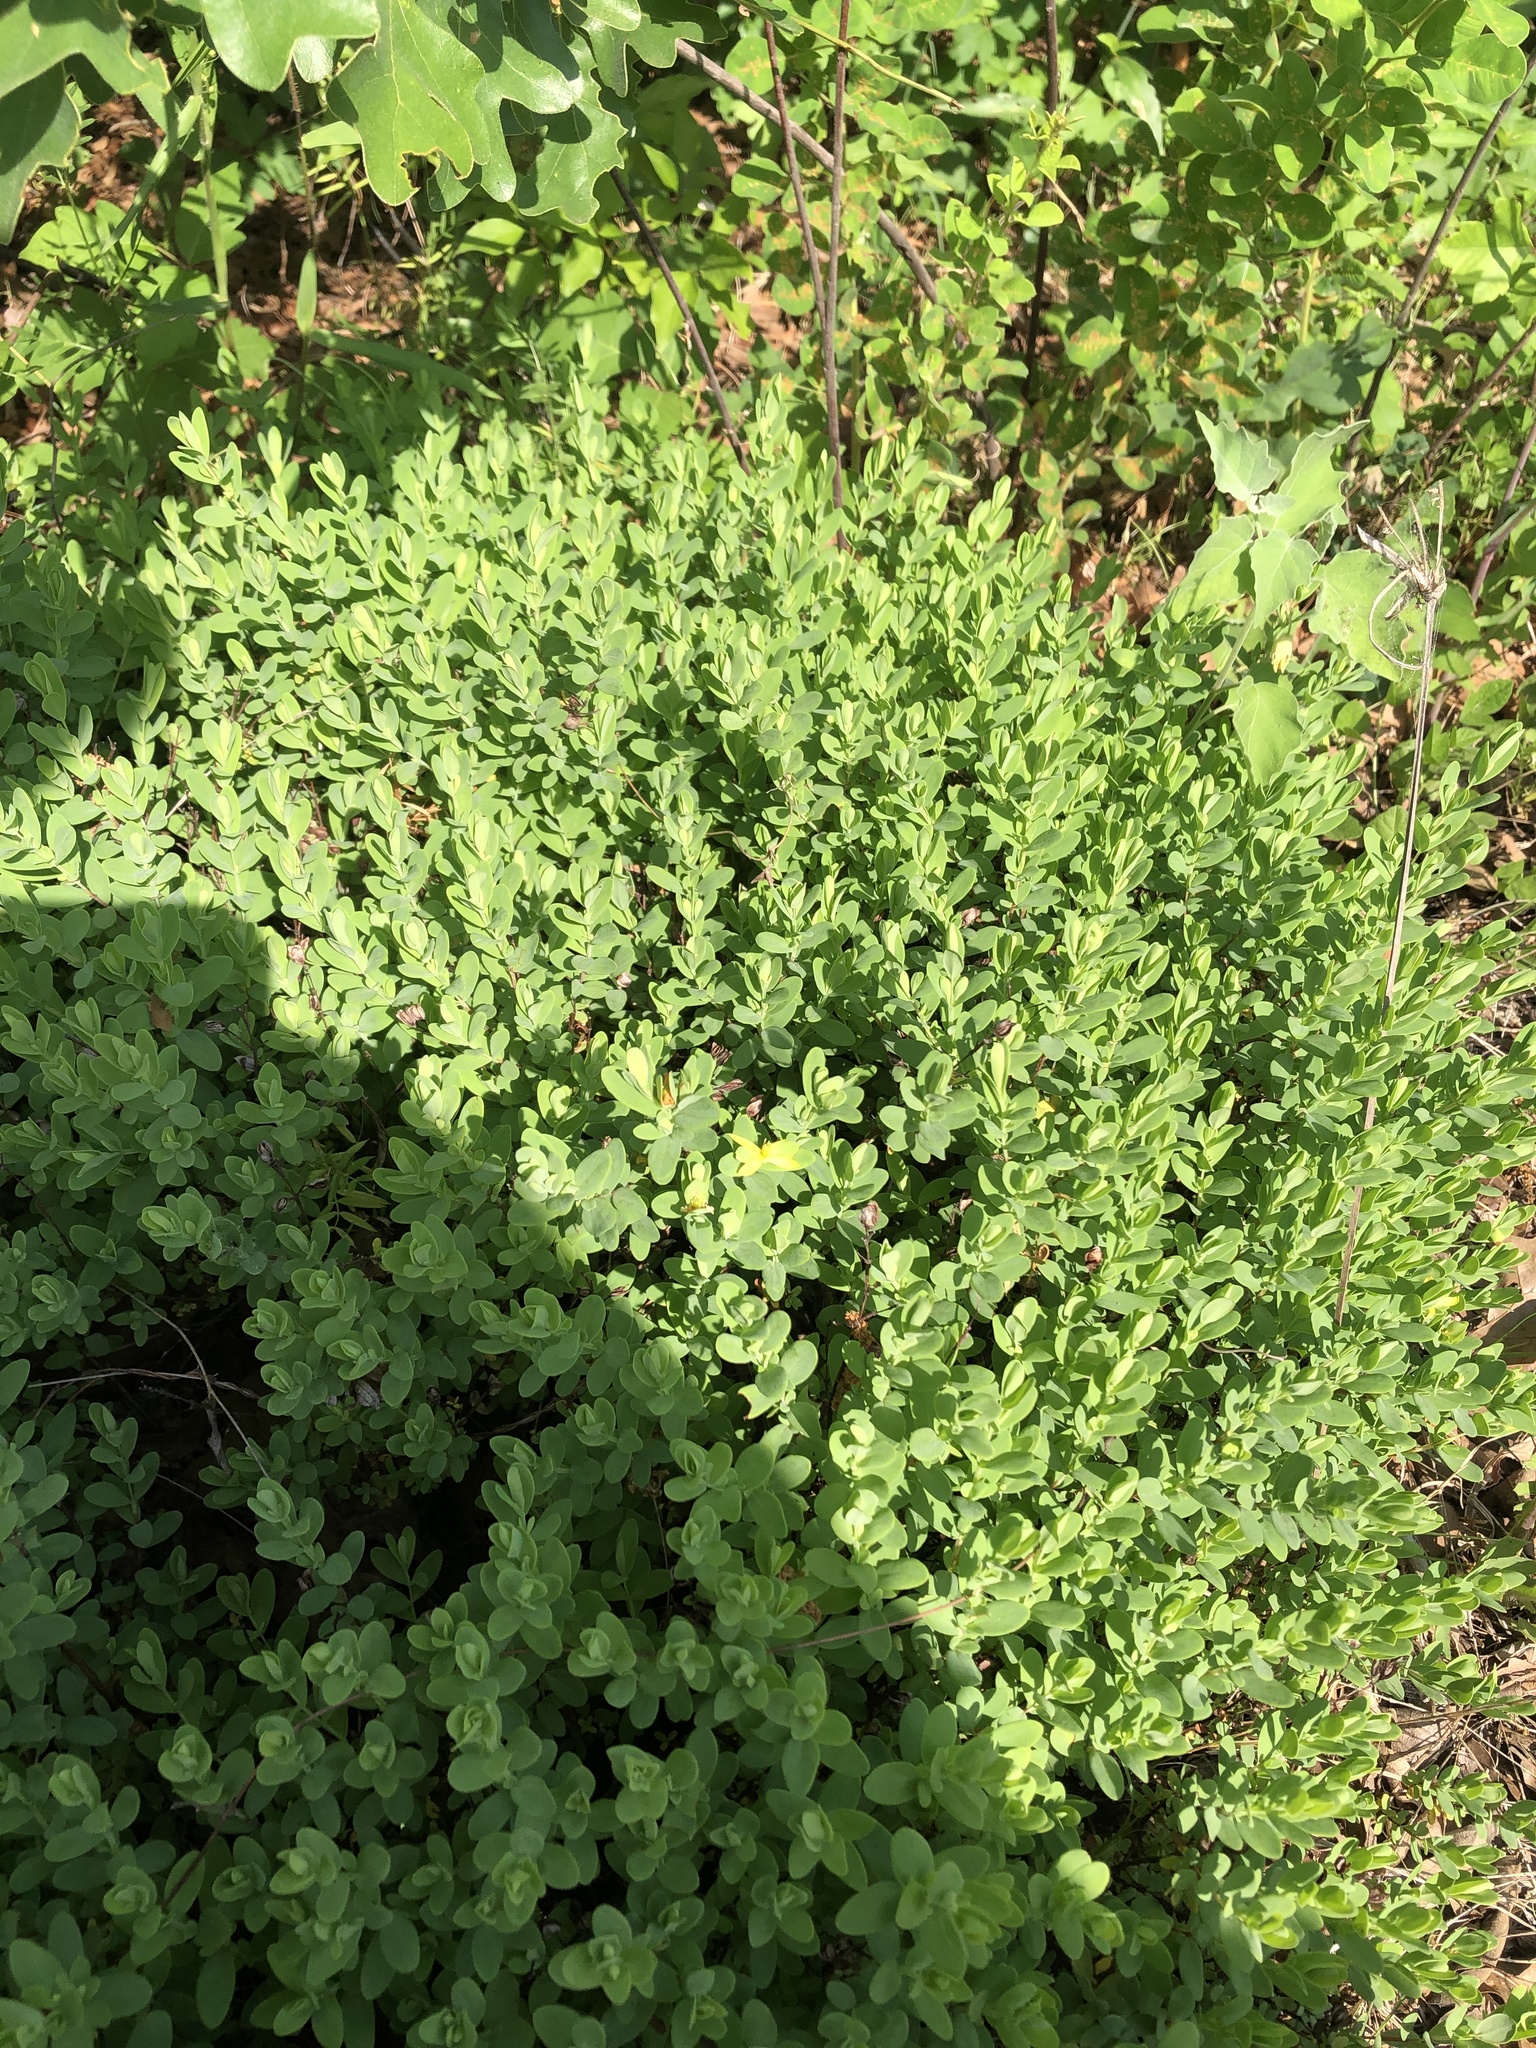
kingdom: Plantae
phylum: Tracheophyta
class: Magnoliopsida
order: Malpighiales
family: Hypericaceae
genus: Hypericum
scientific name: Hypericum hypericoides
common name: St. andrew's cross
